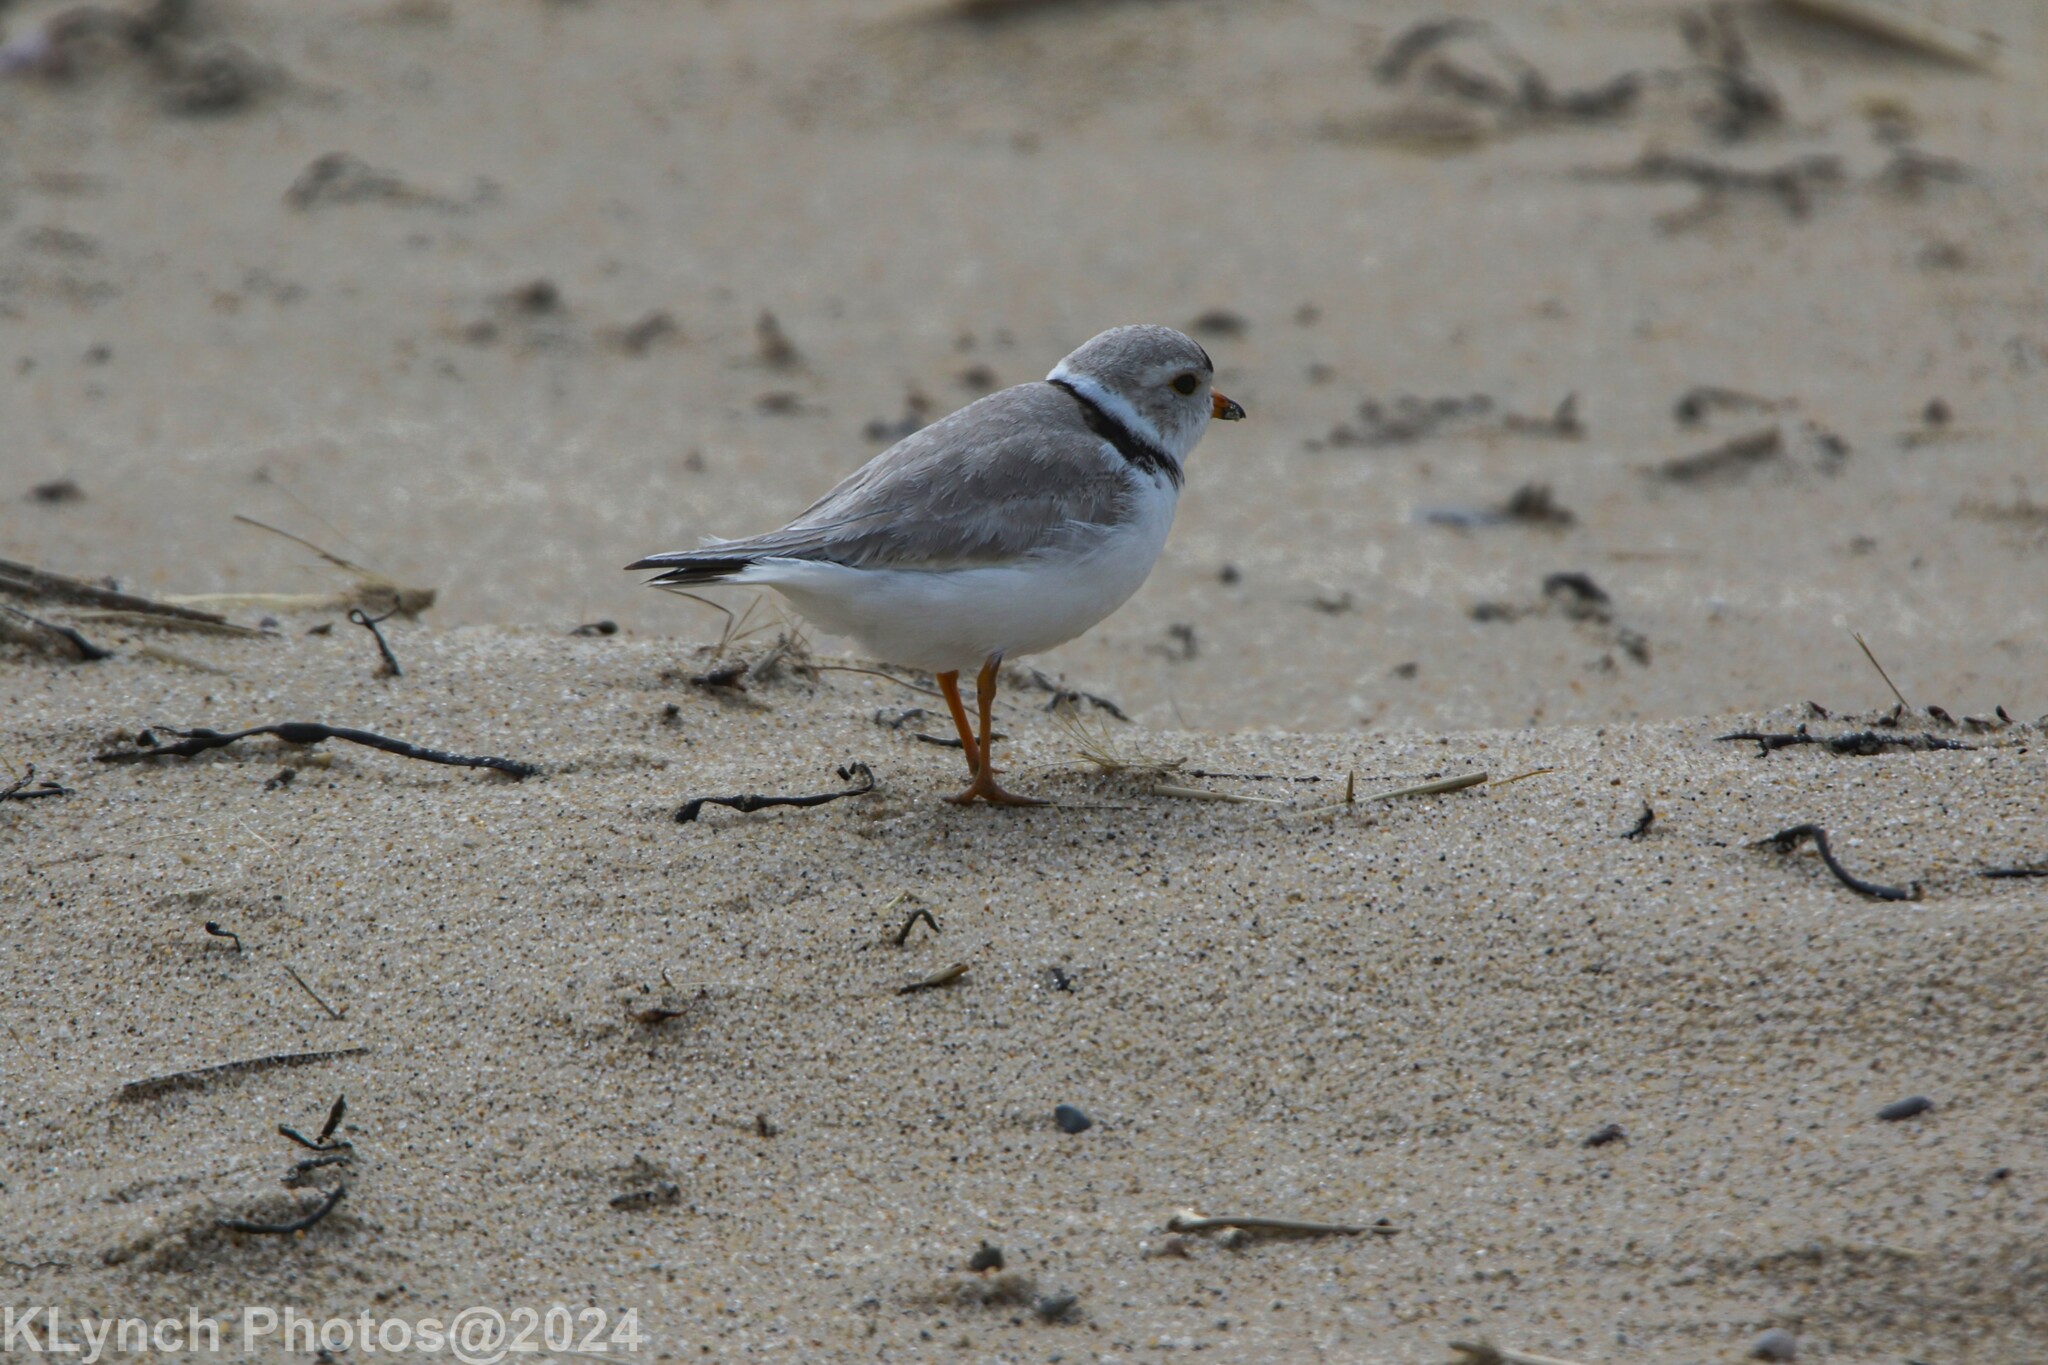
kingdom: Animalia
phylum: Chordata
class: Aves
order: Charadriiformes
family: Charadriidae
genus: Charadrius
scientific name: Charadrius melodus
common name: Piping plover
